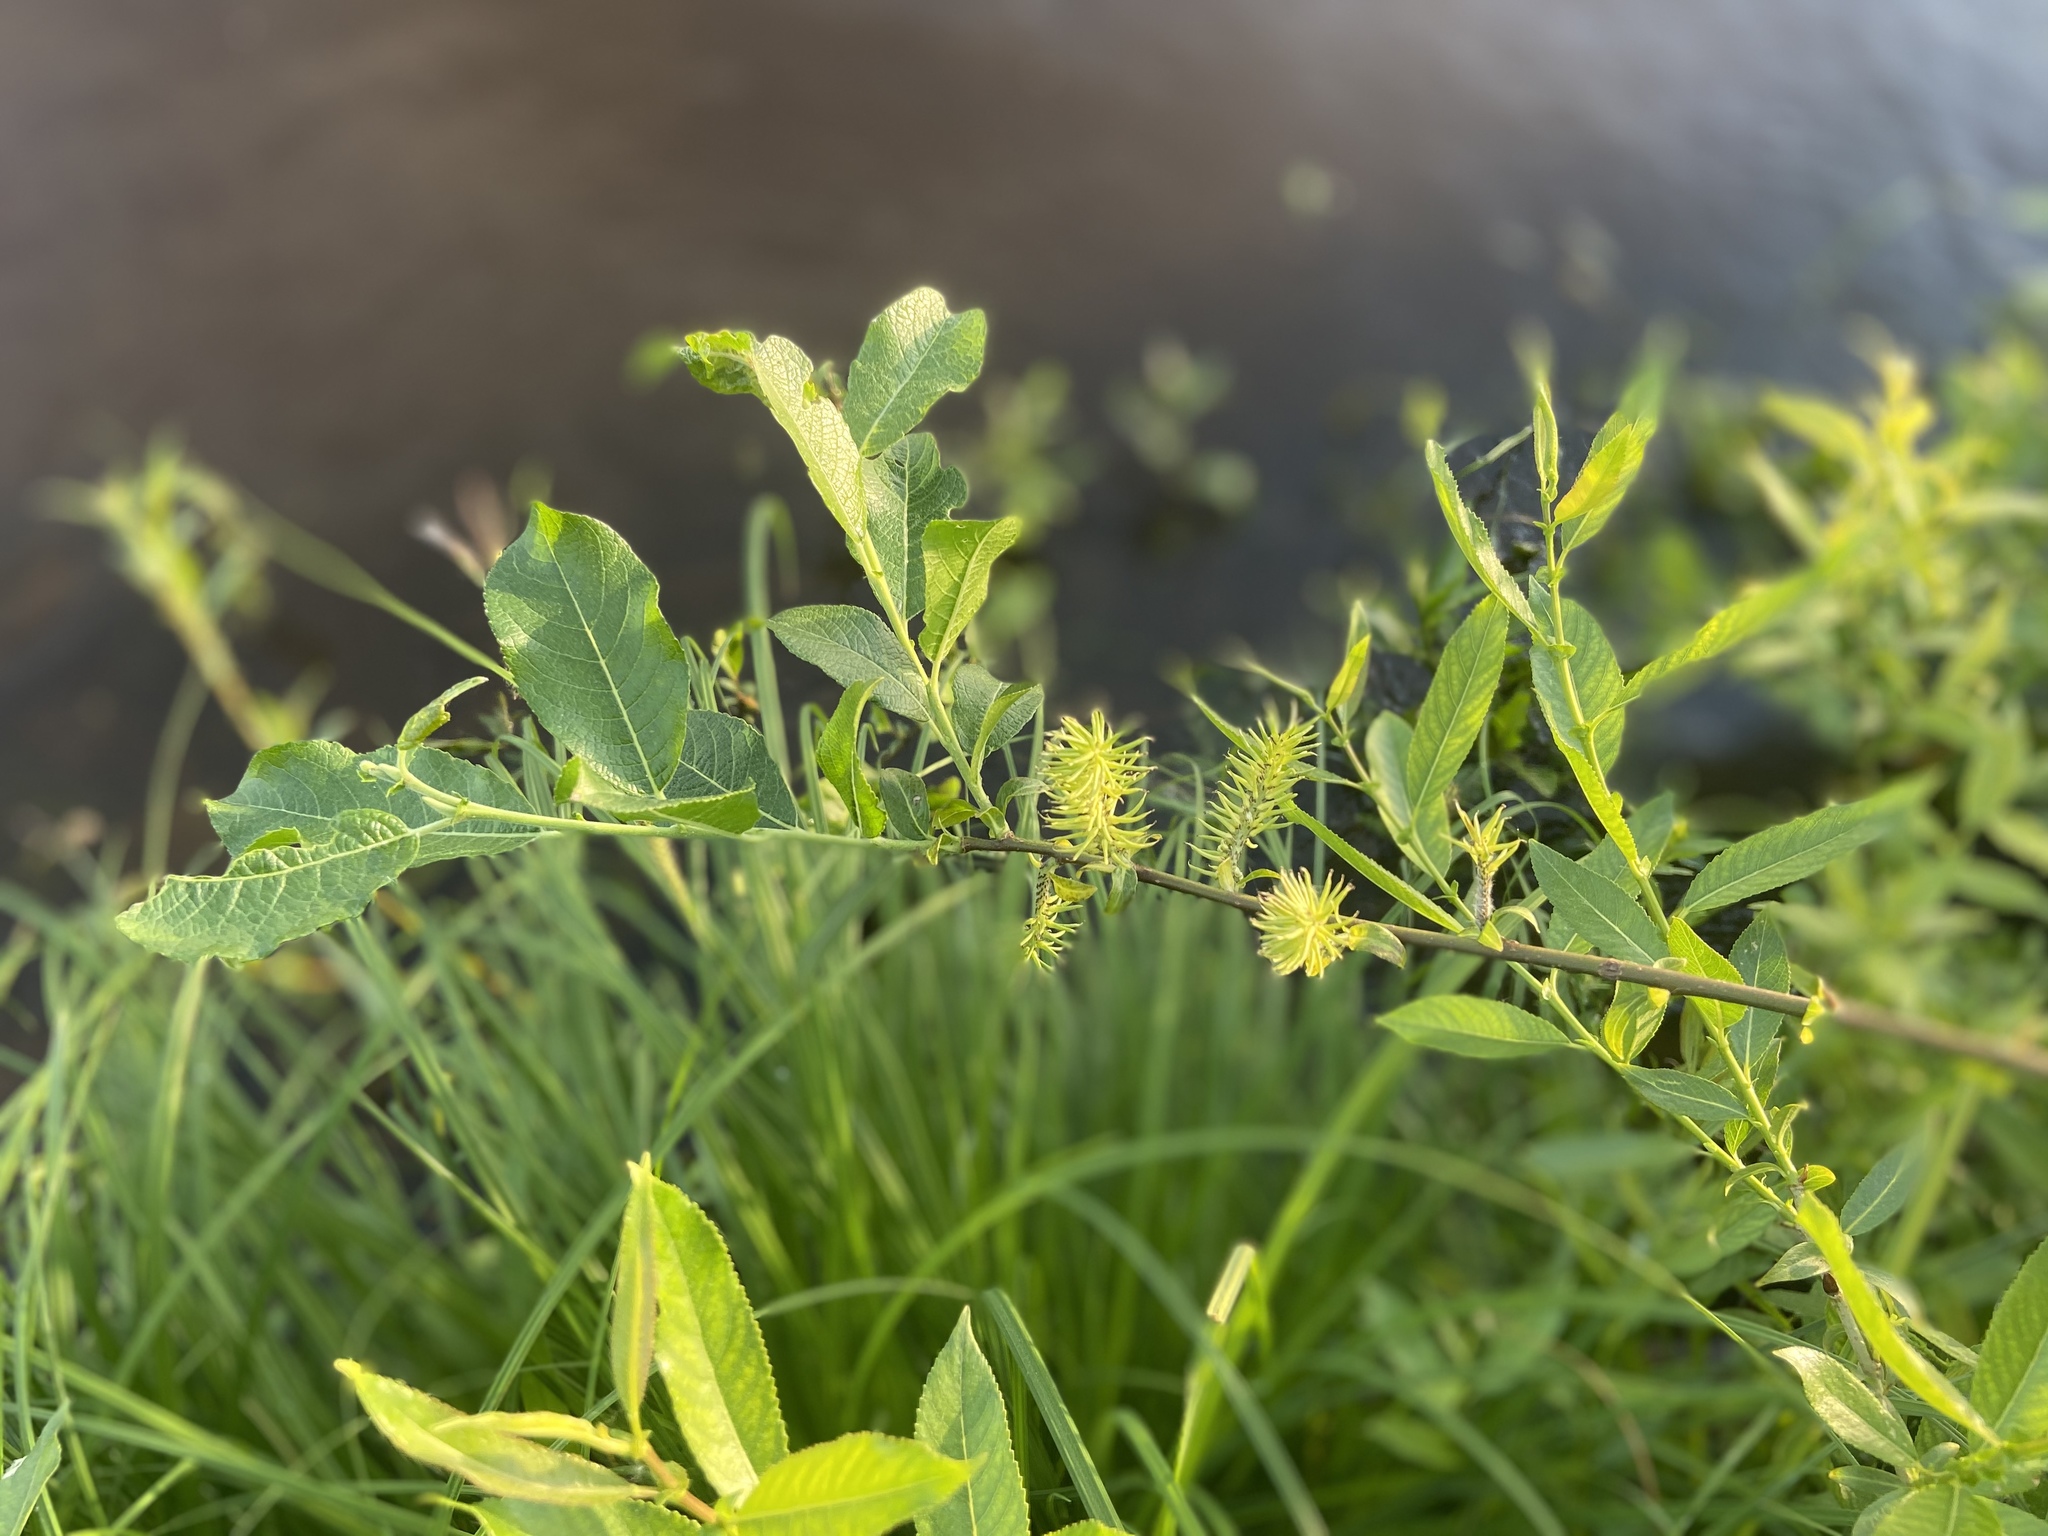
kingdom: Plantae
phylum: Tracheophyta
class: Magnoliopsida
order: Malpighiales
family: Salicaceae
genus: Salix
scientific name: Salix myrsinifolia
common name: Dark-leaved willow
